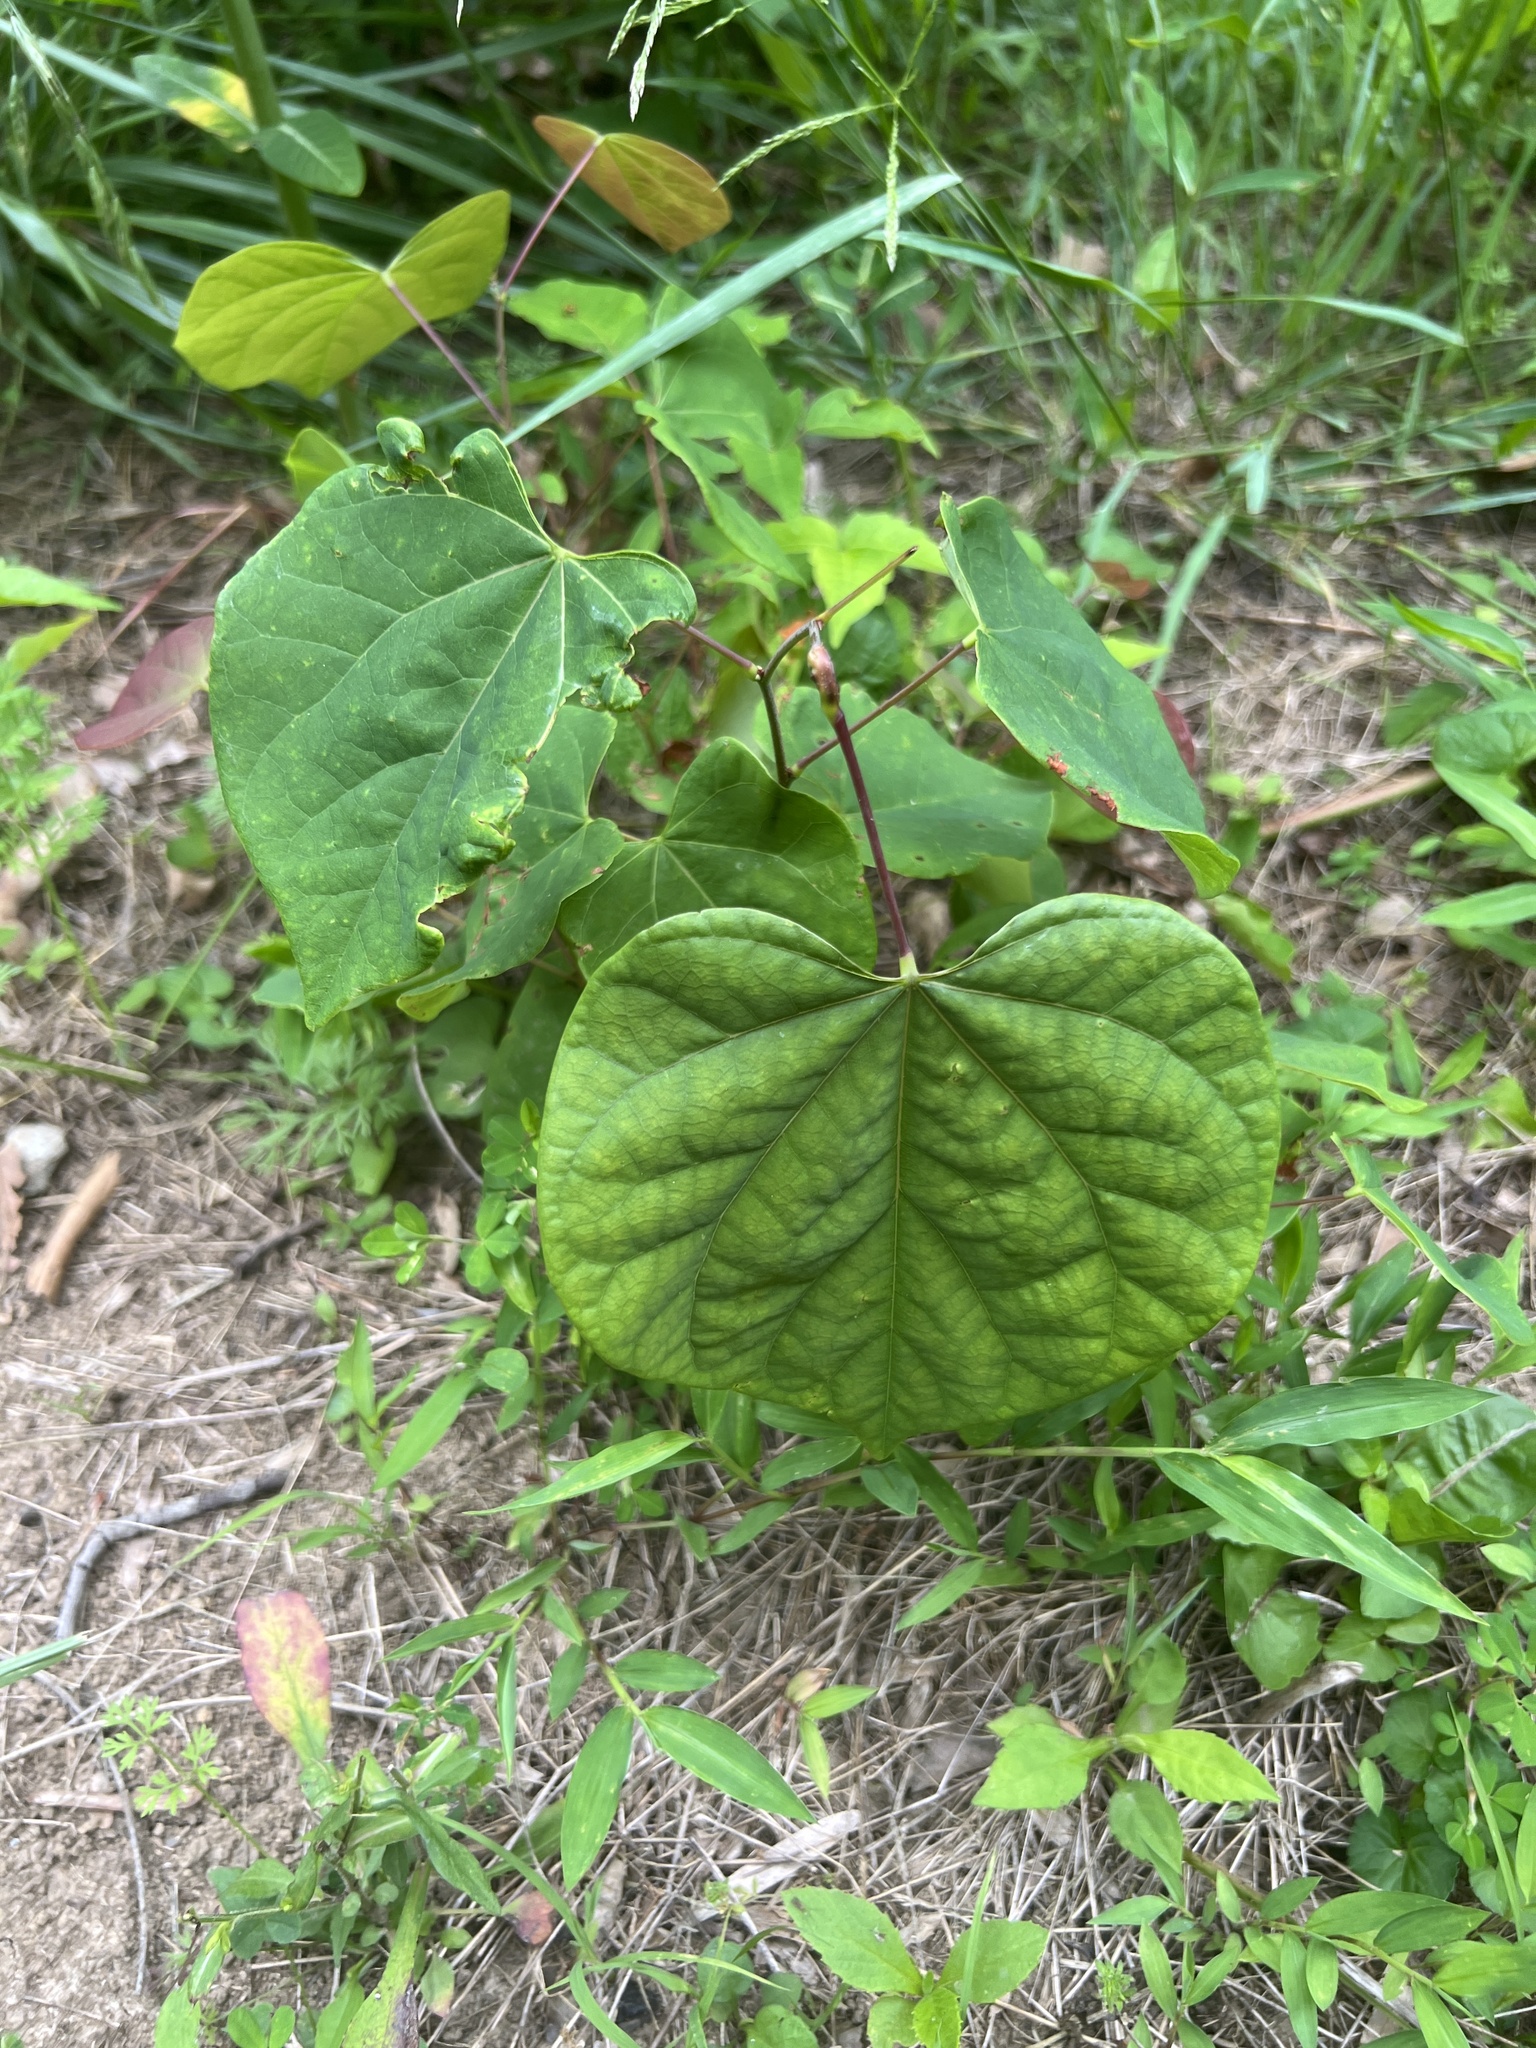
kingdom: Plantae
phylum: Tracheophyta
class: Magnoliopsida
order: Fabales
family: Fabaceae
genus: Cercis
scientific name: Cercis canadensis
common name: Eastern redbud
